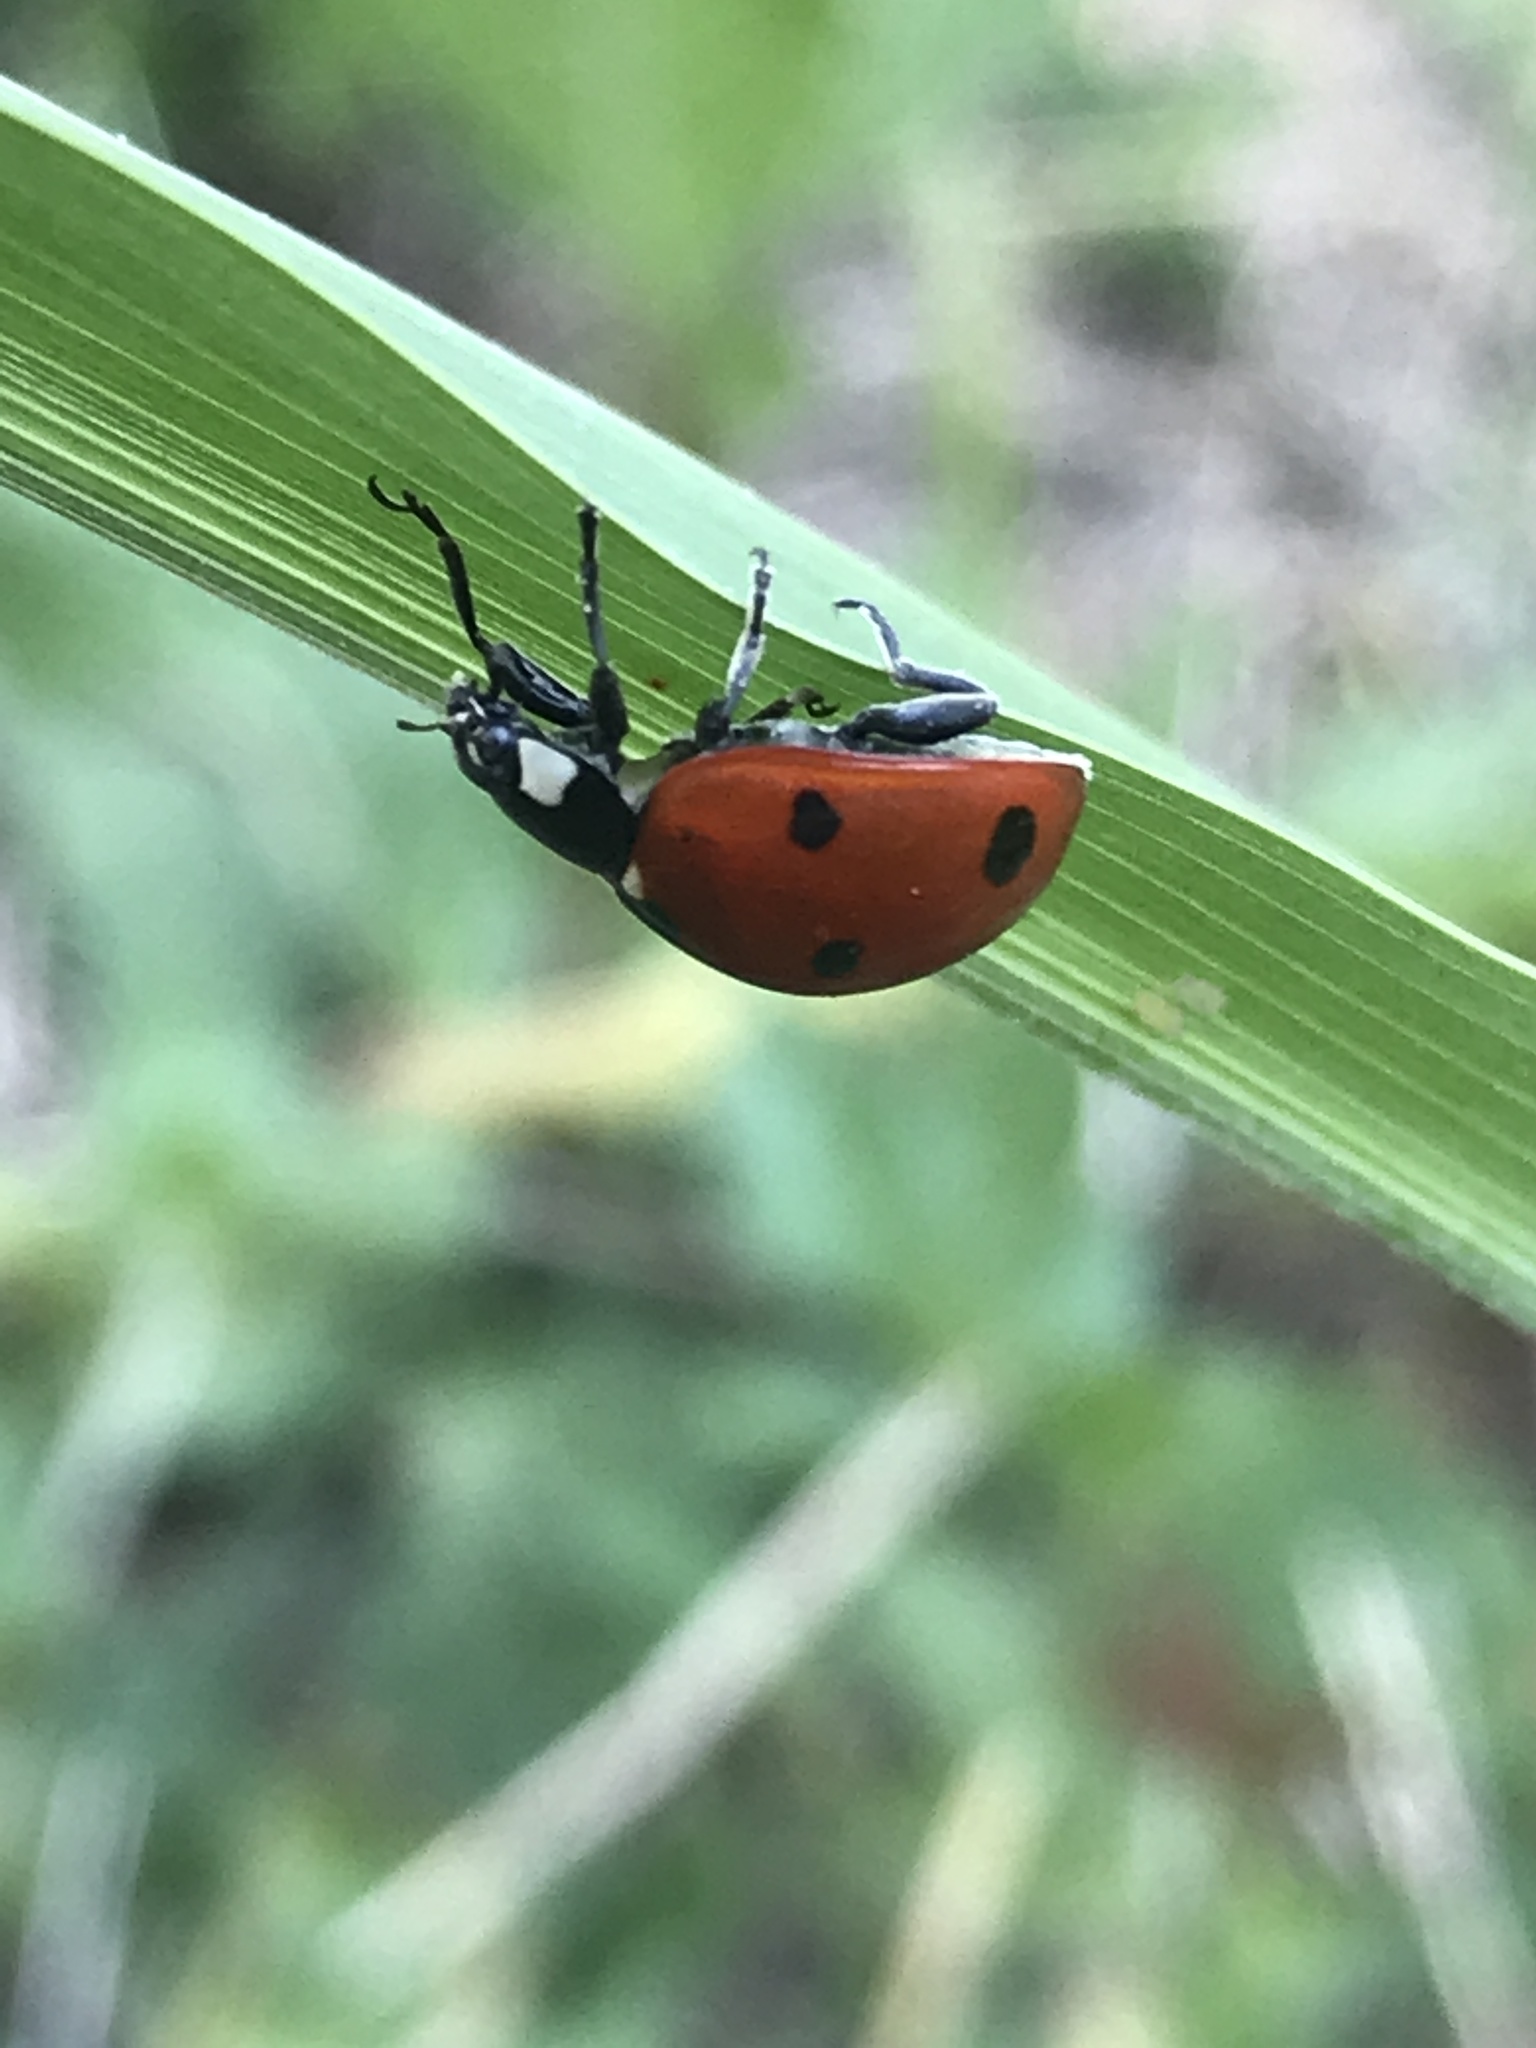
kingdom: Animalia
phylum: Arthropoda
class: Insecta
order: Coleoptera
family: Coccinellidae
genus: Coccinella
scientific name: Coccinella septempunctata
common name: Sevenspotted lady beetle
